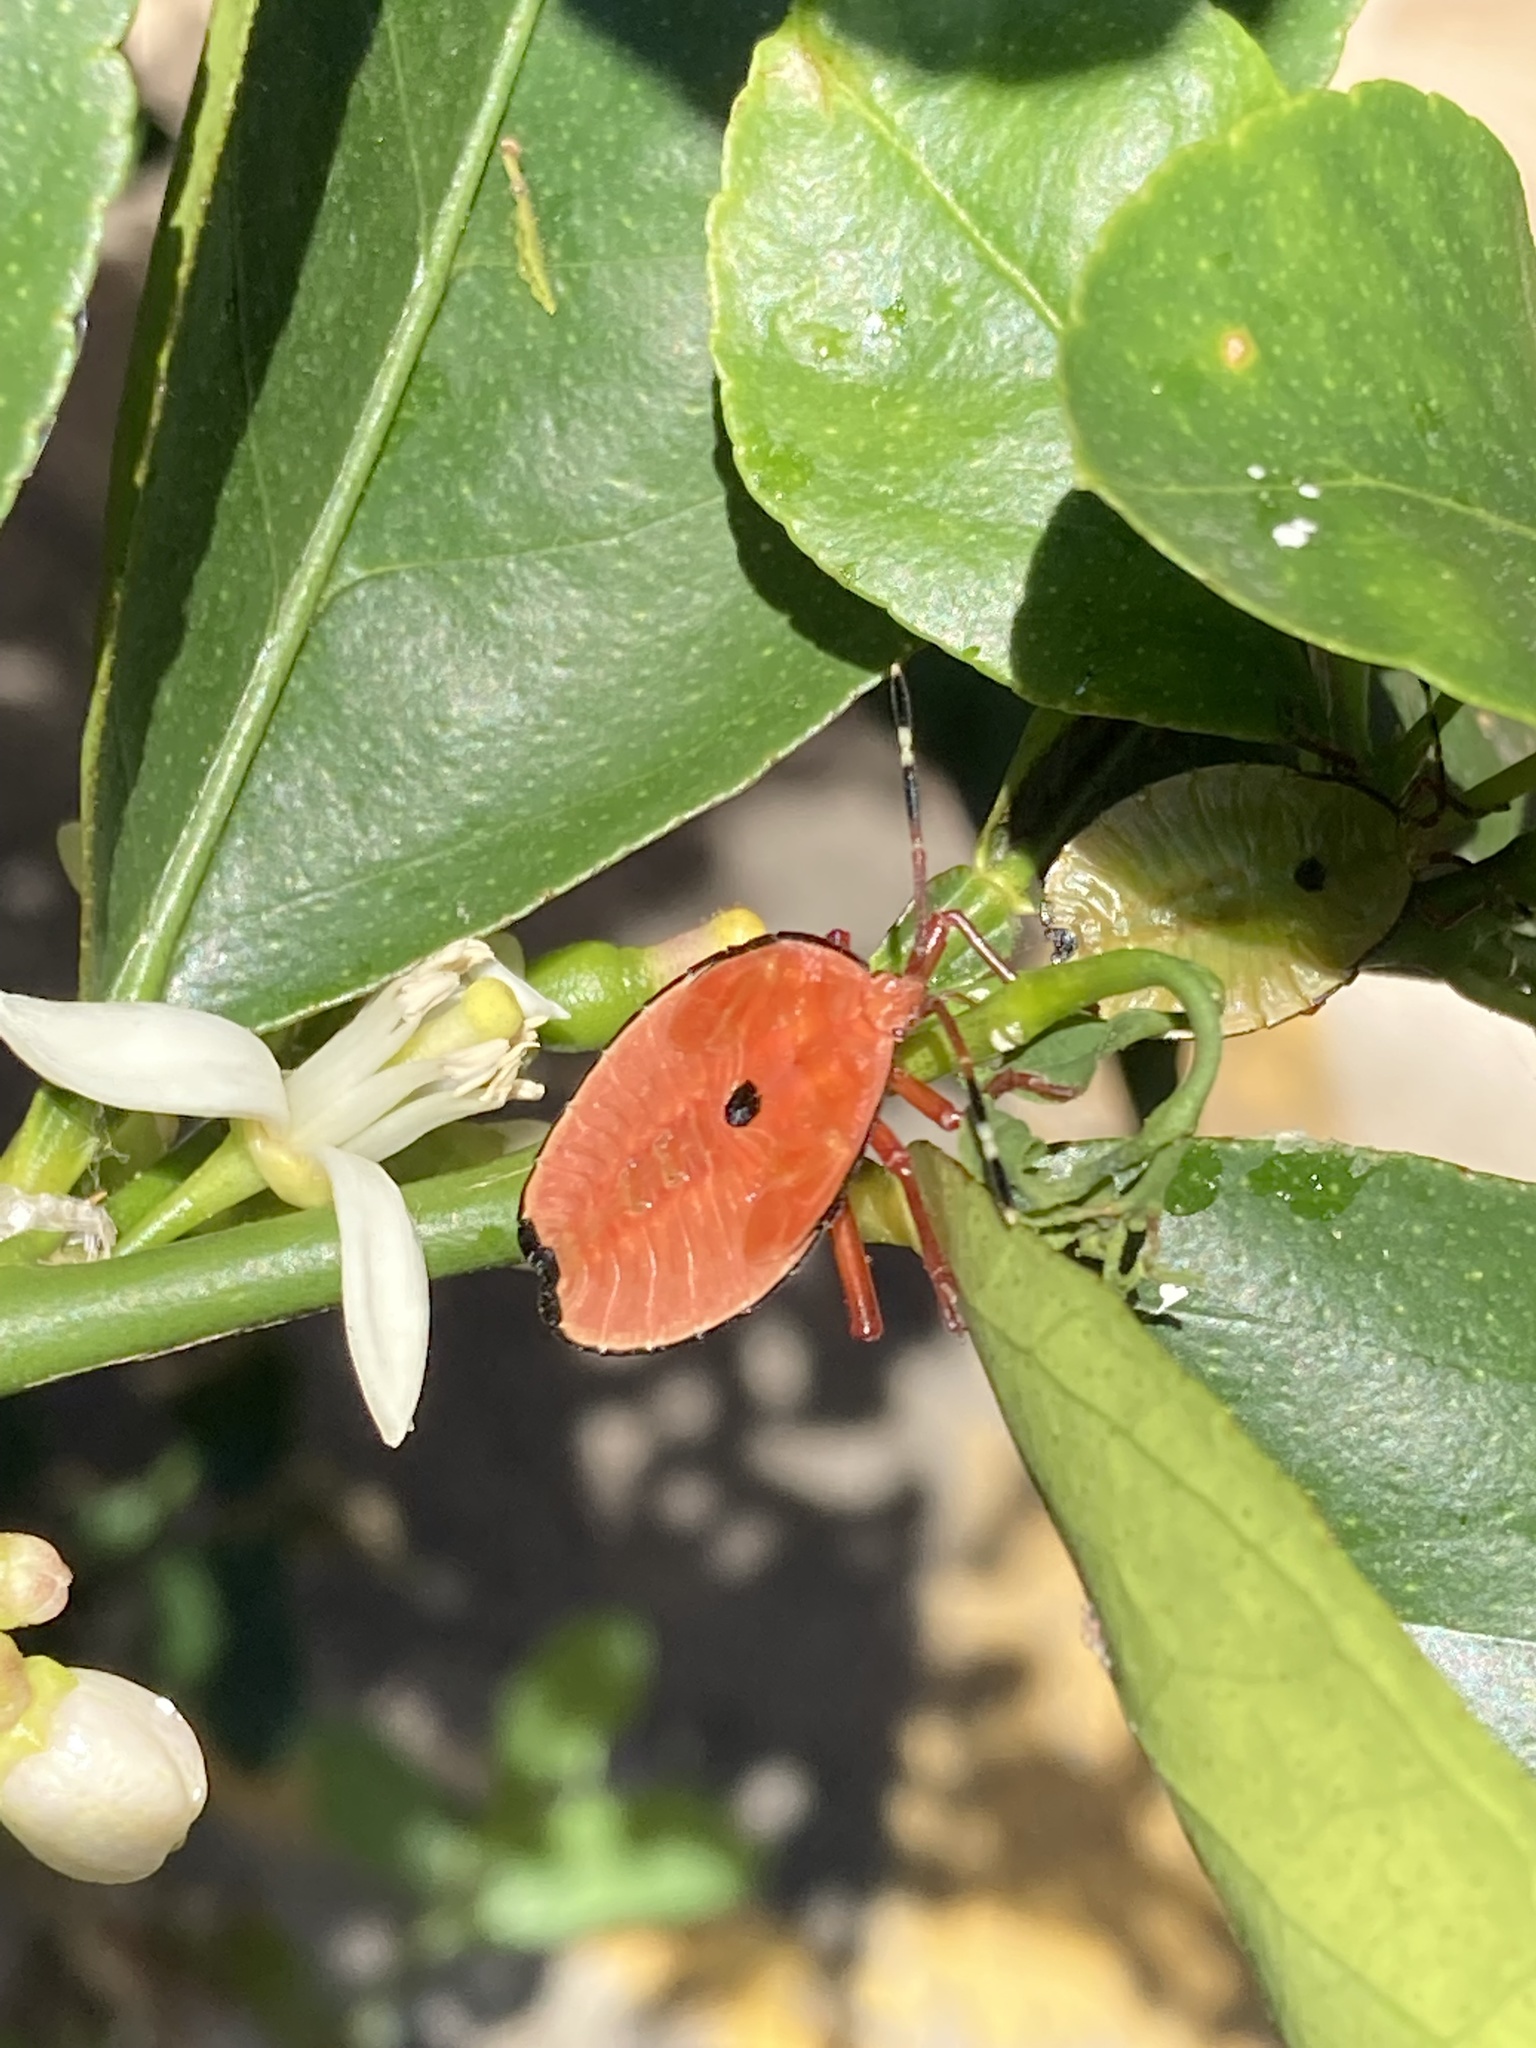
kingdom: Animalia
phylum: Arthropoda
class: Insecta
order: Hemiptera
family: Tessaratomidae
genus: Musgraveia
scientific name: Musgraveia sulciventris
